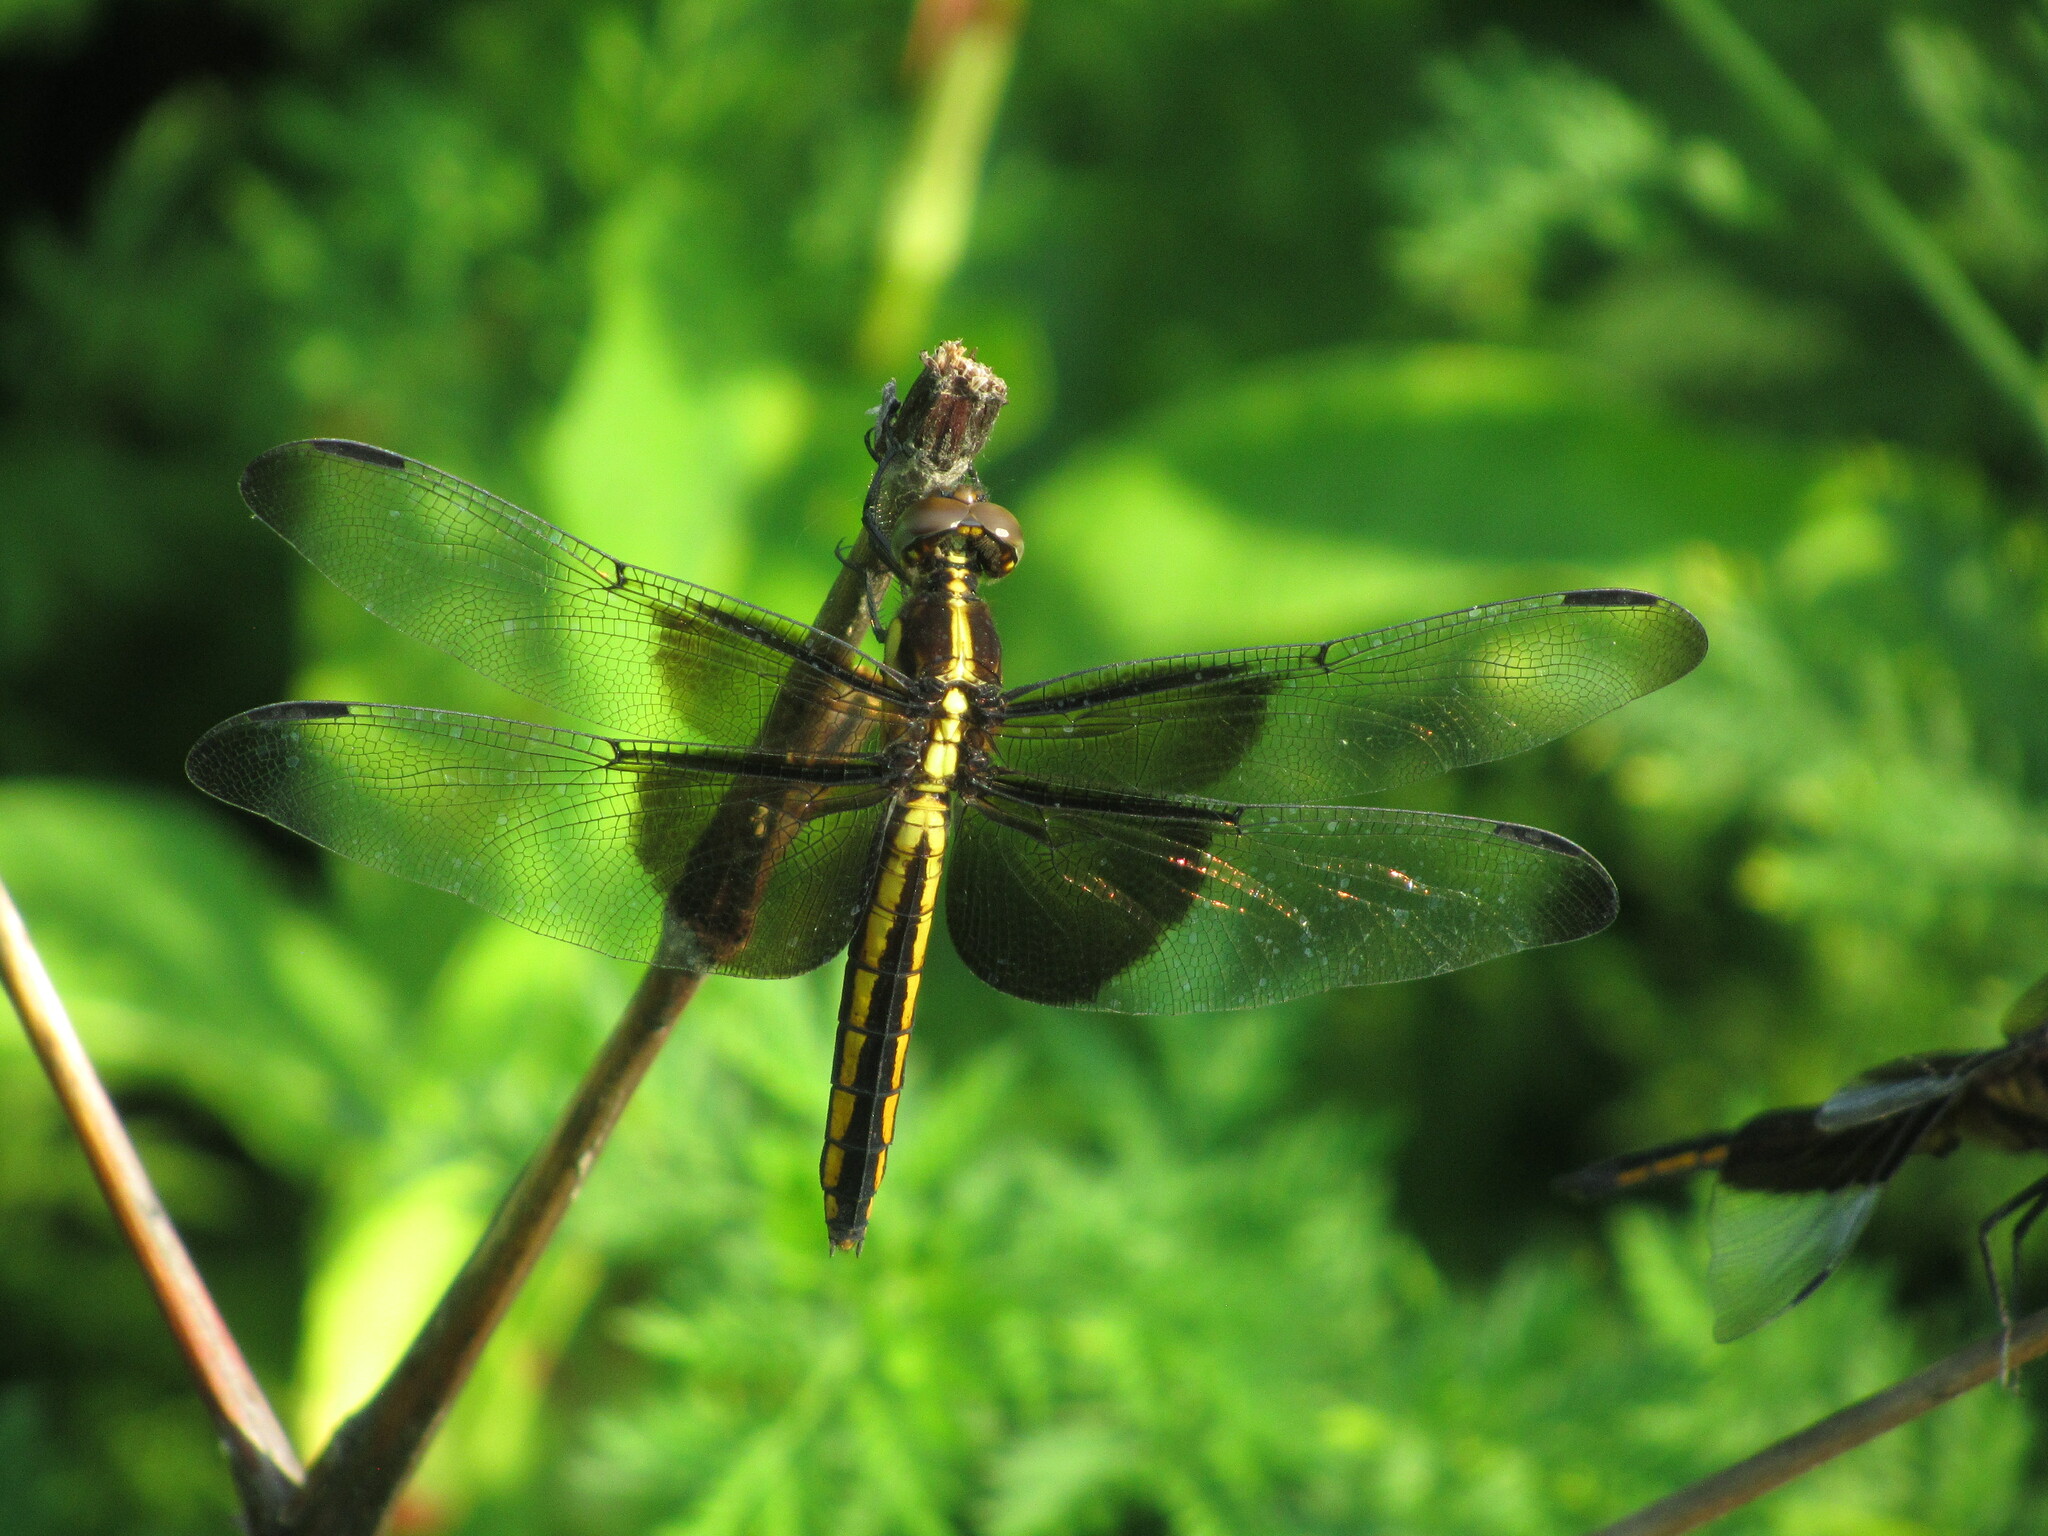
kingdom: Animalia
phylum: Arthropoda
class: Insecta
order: Odonata
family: Libellulidae
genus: Libellula
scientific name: Libellula luctuosa
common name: Widow skimmer
